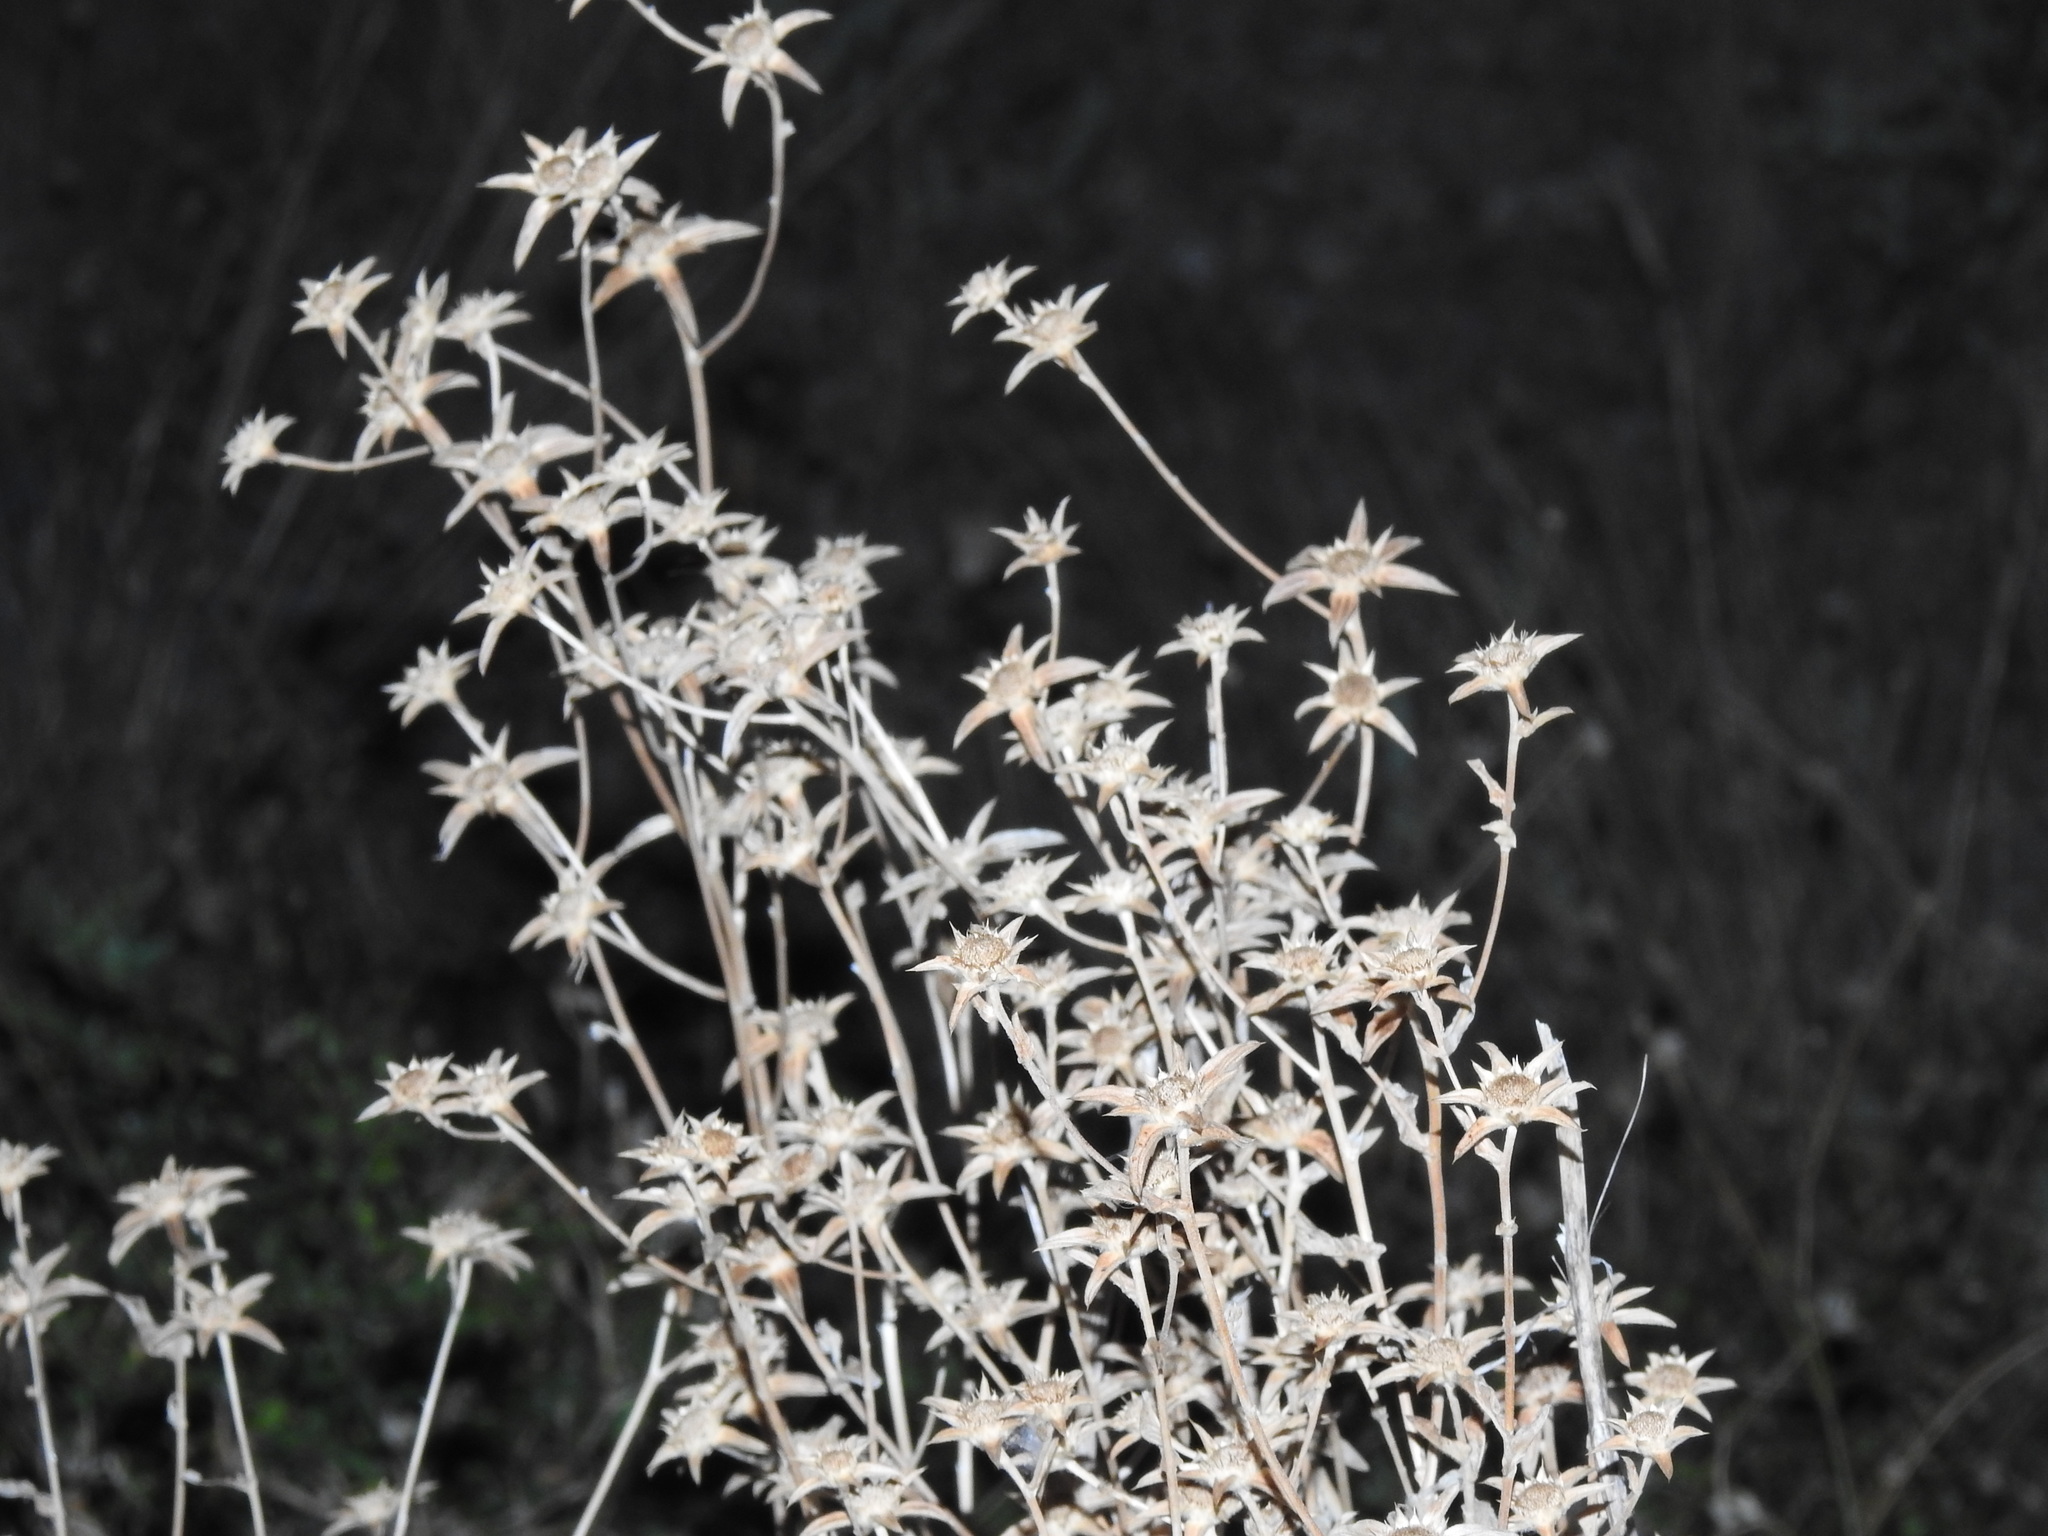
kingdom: Plantae
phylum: Tracheophyta
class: Magnoliopsida
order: Asterales
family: Asteraceae
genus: Pallenis
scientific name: Pallenis spinosa
